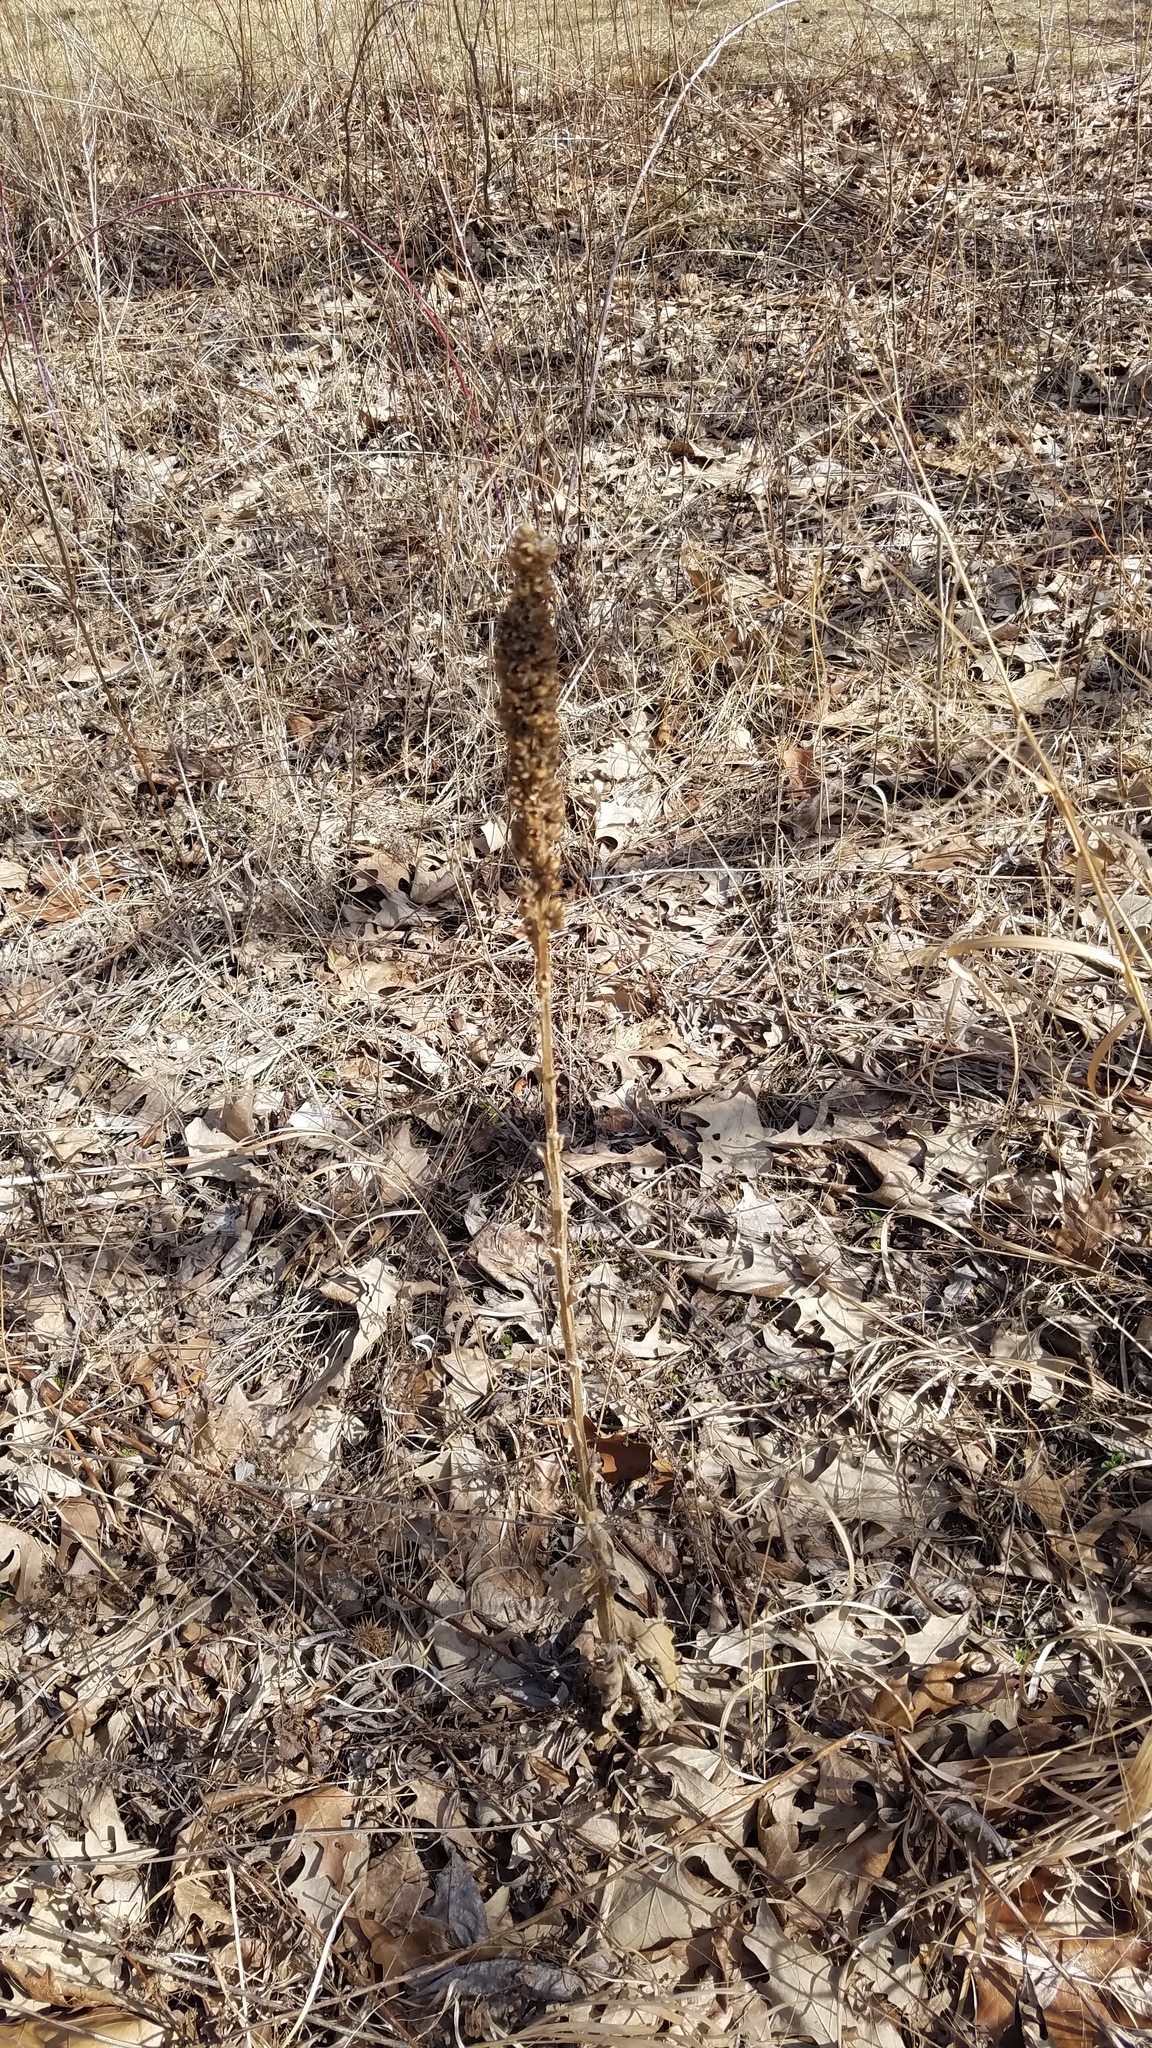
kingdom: Plantae
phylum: Tracheophyta
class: Magnoliopsida
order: Lamiales
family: Scrophulariaceae
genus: Verbascum
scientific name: Verbascum thapsus
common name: Common mullein
